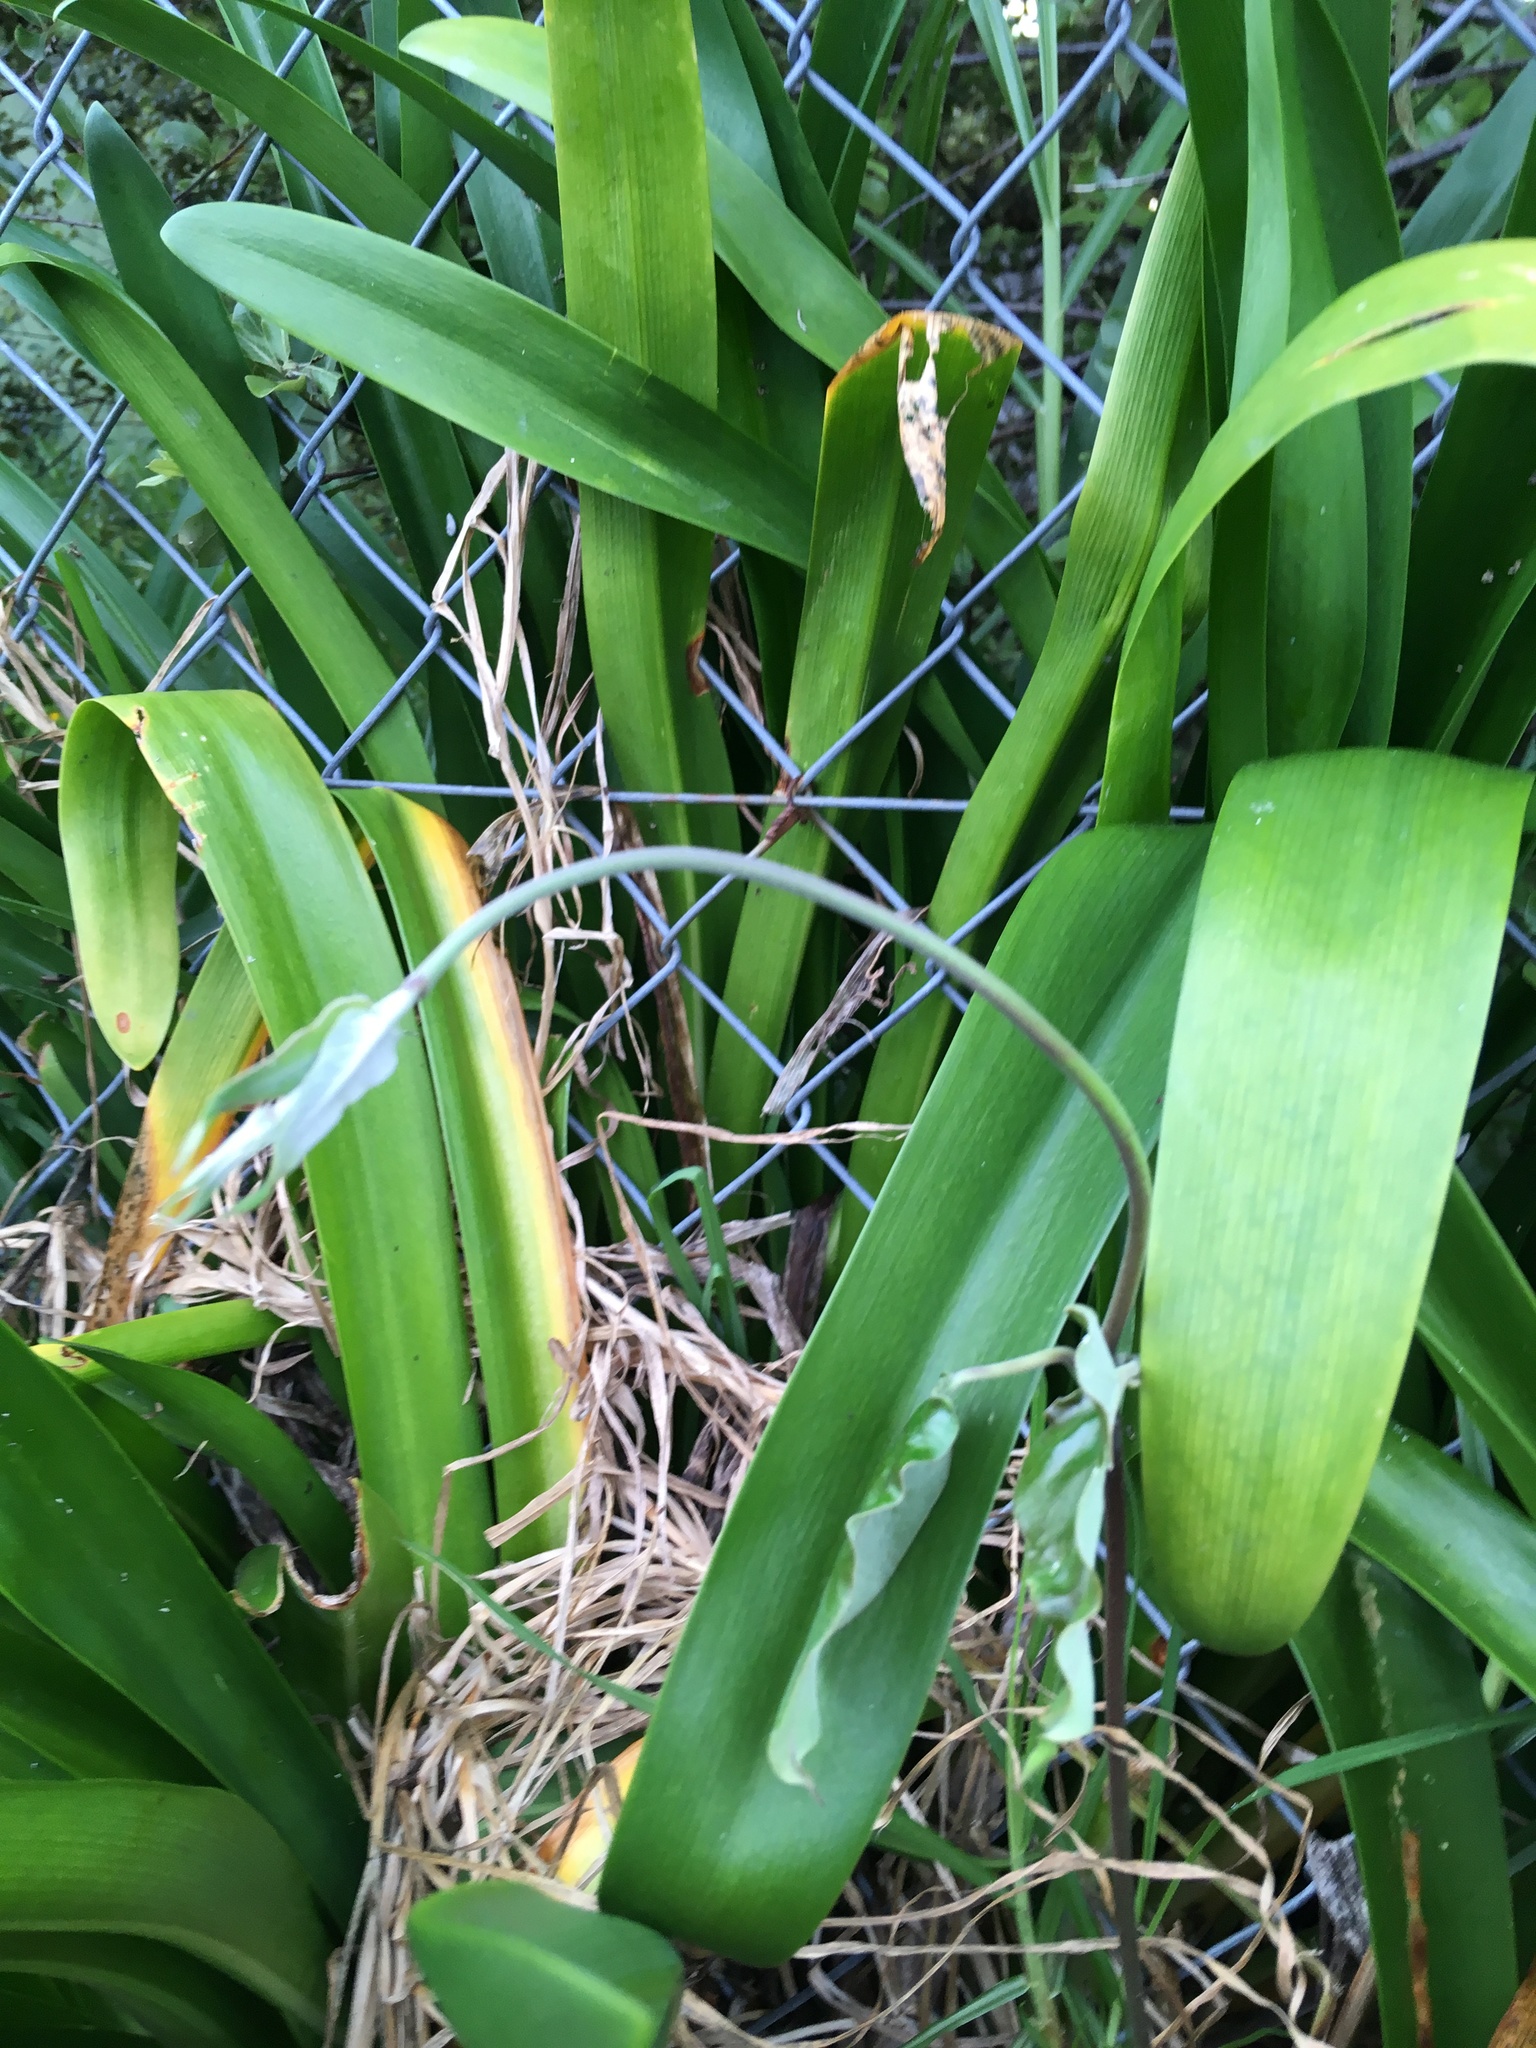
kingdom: Plantae
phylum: Tracheophyta
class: Magnoliopsida
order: Gentianales
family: Apocynaceae
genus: Araujia
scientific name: Araujia sericifera
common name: White bladderflower
